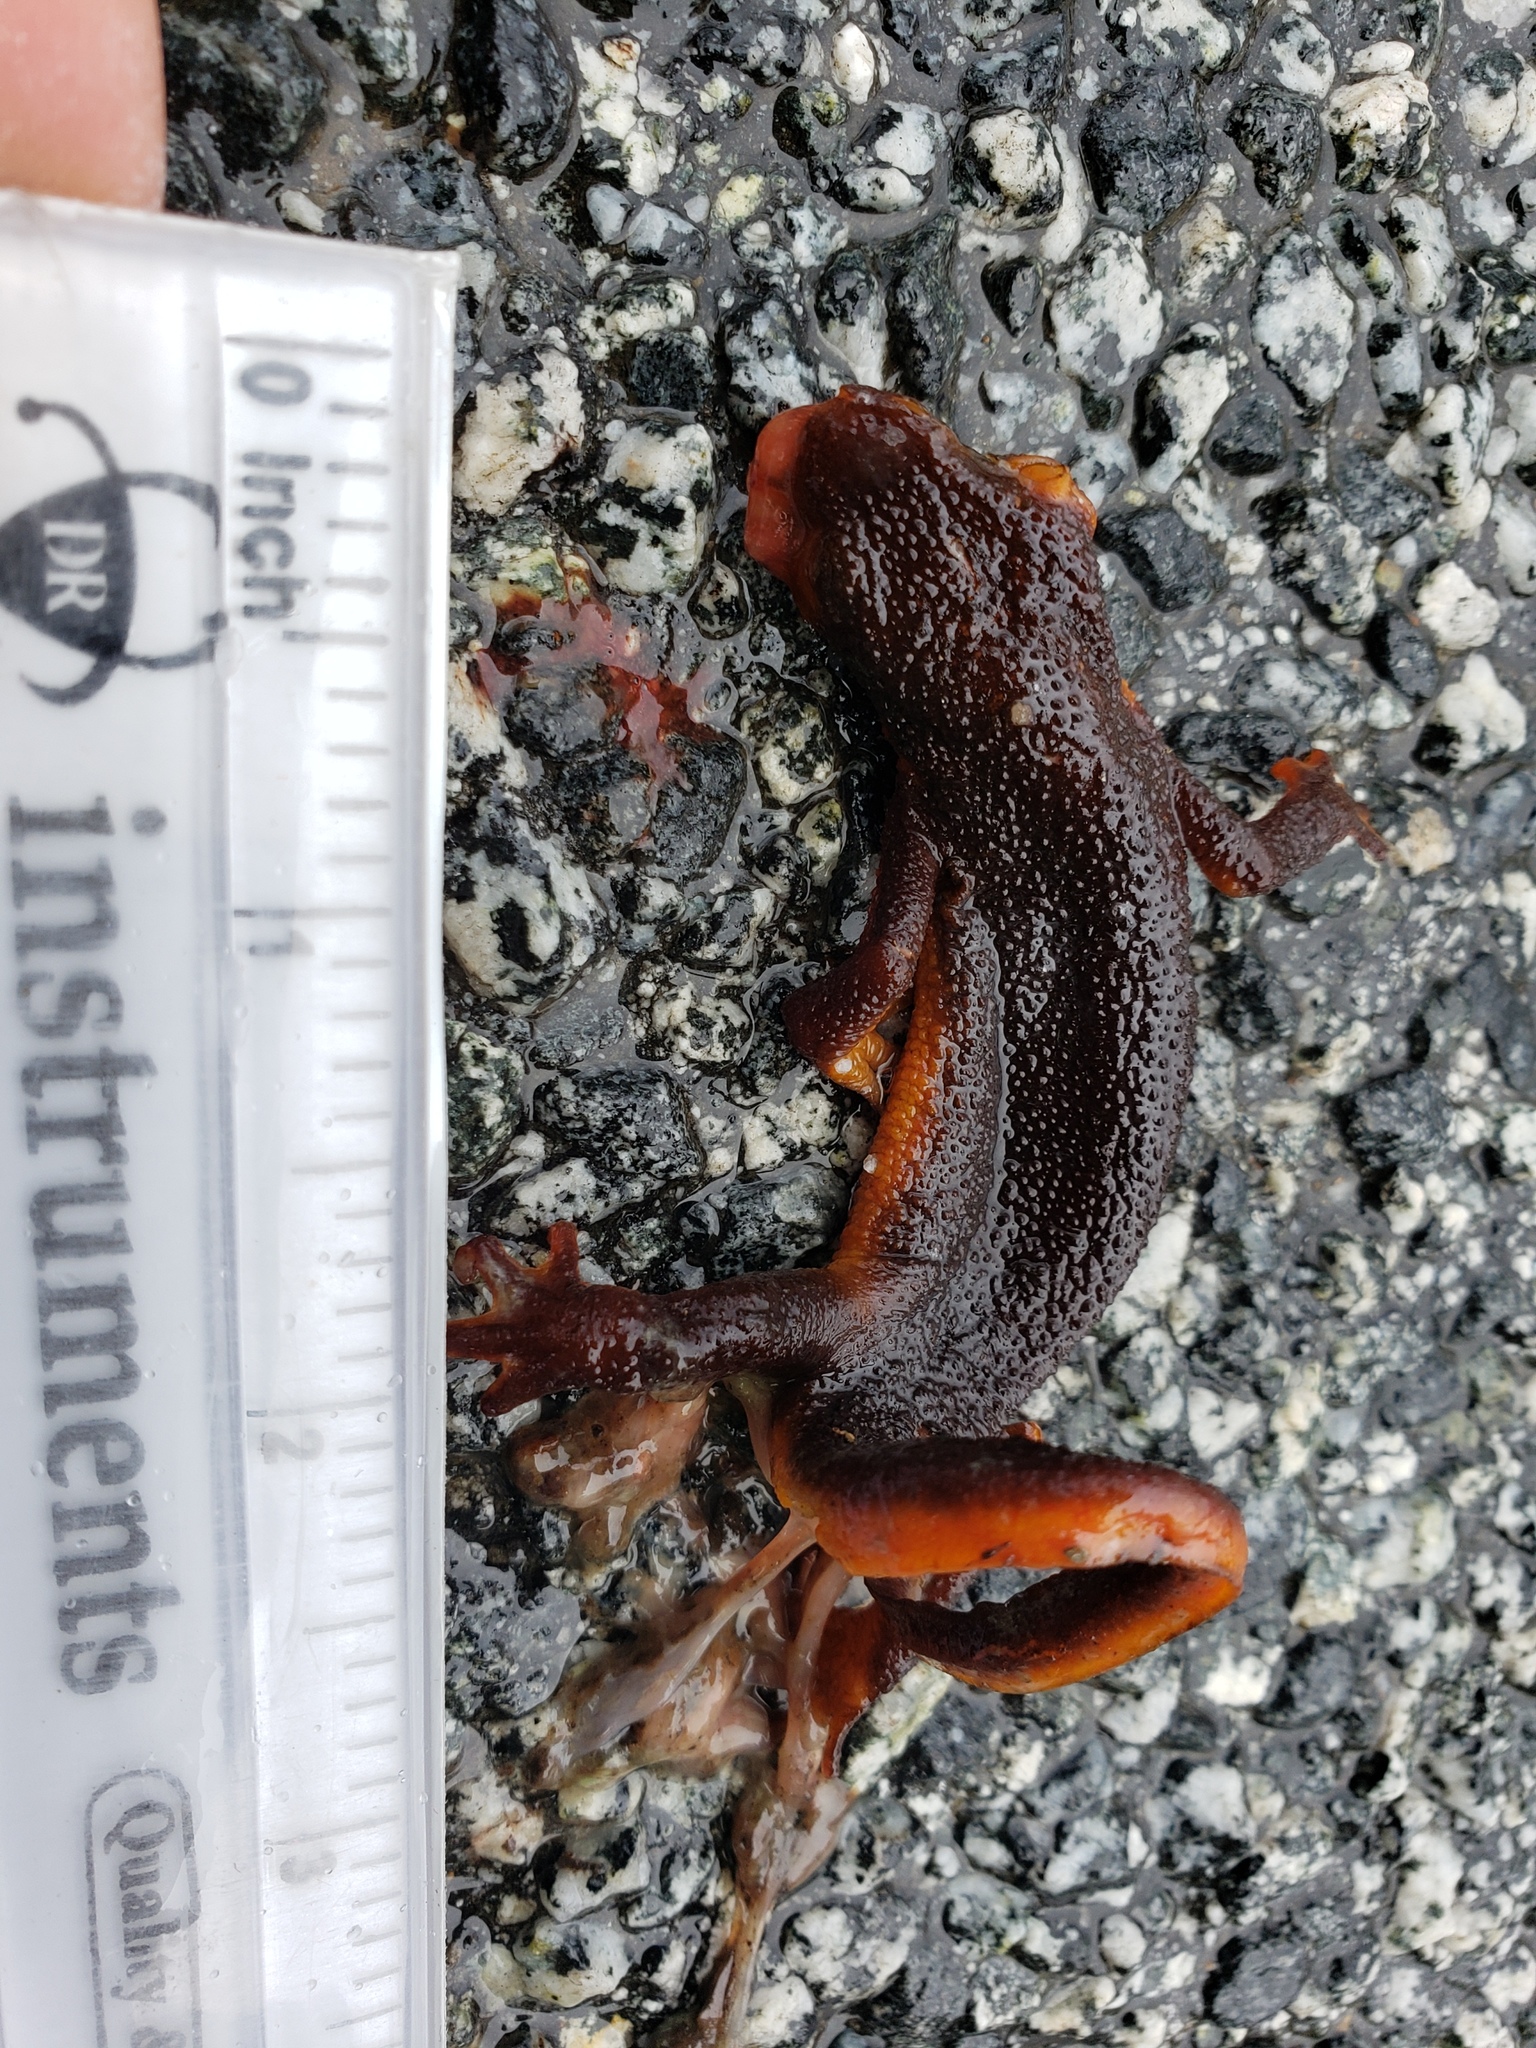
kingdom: Animalia
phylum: Chordata
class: Amphibia
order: Caudata
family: Salamandridae
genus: Taricha
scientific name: Taricha
